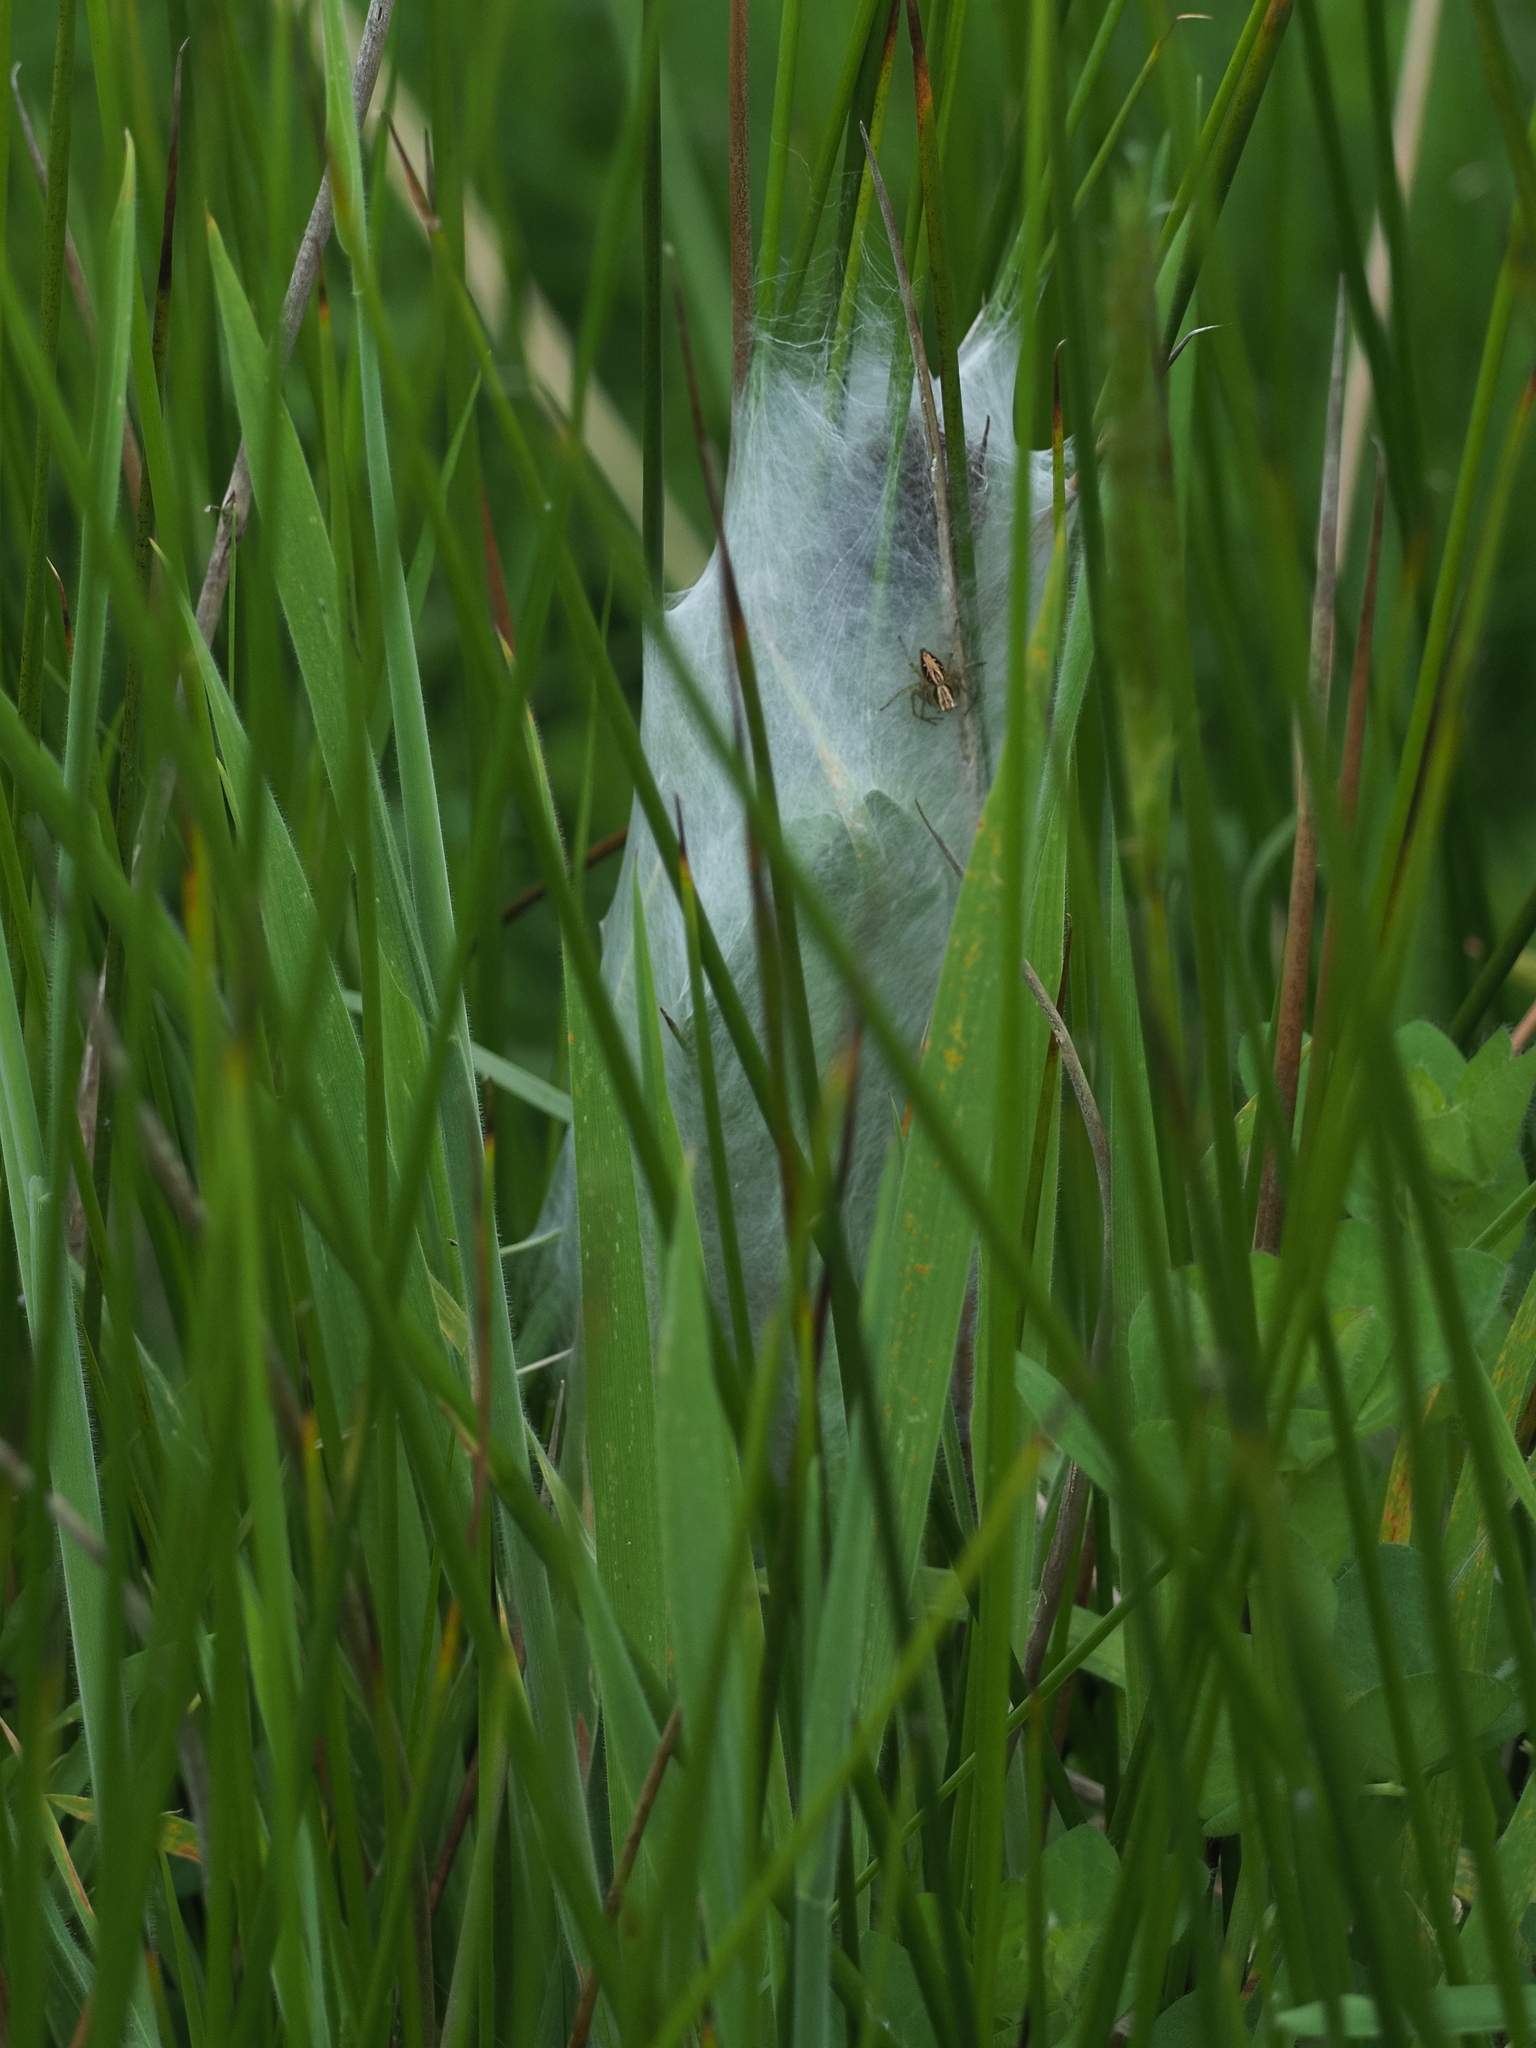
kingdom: Animalia
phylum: Arthropoda
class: Arachnida
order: Araneae
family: Oxyopidae
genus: Oxyopes
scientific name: Oxyopes gracilipes
